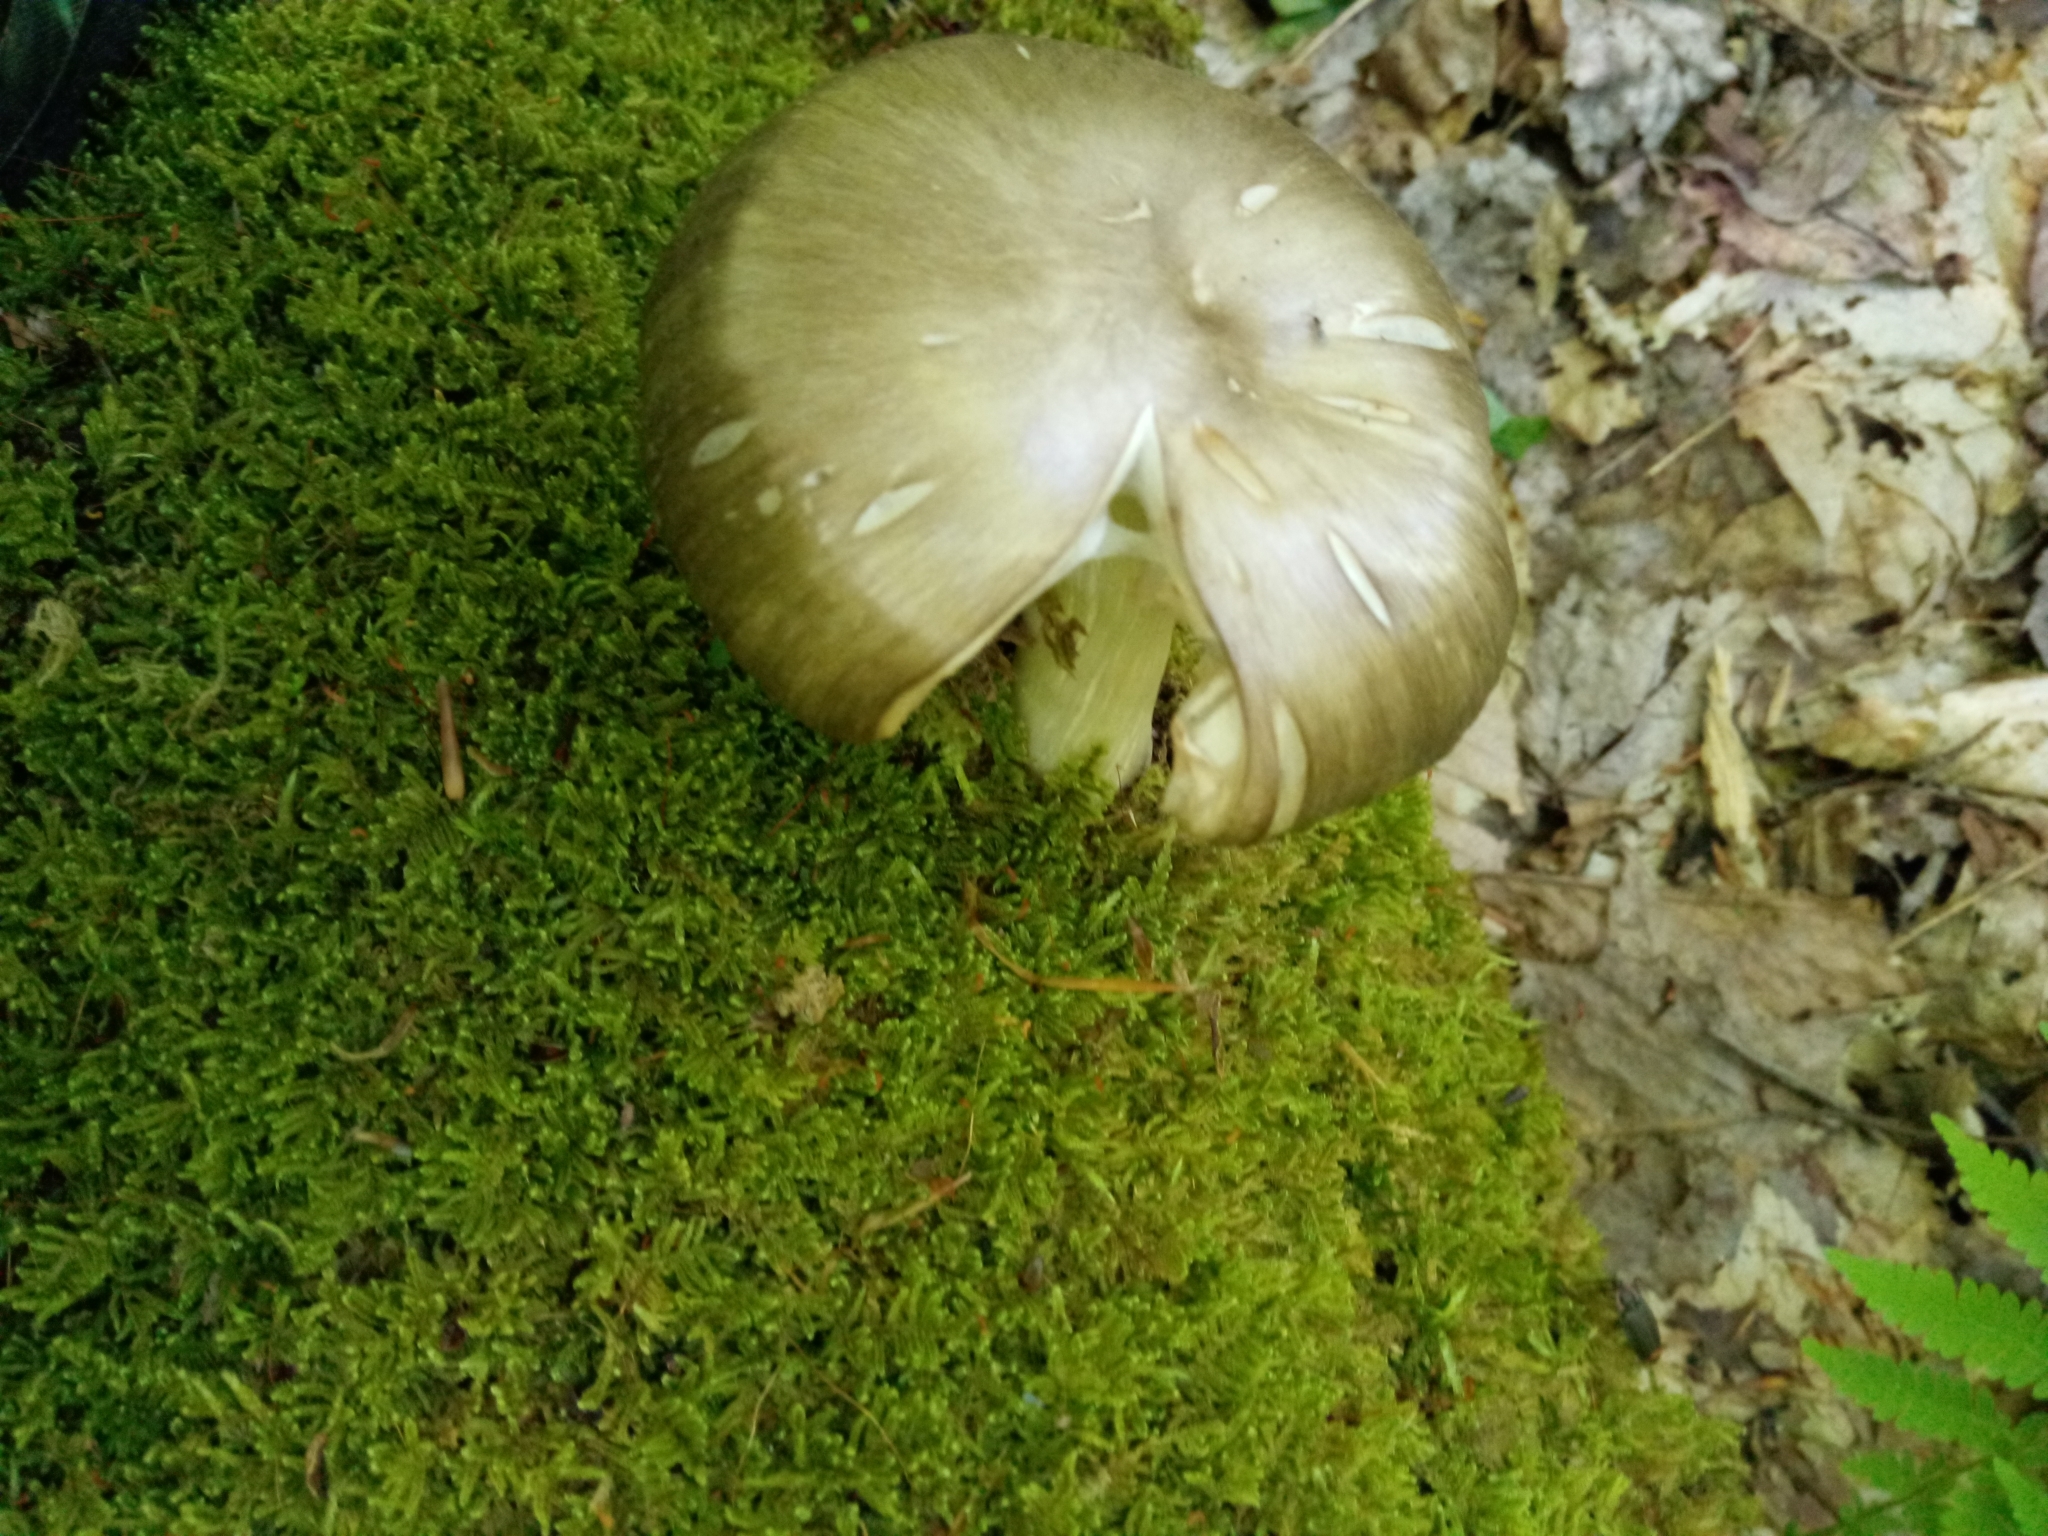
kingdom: Fungi
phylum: Basidiomycota
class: Agaricomycetes
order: Agaricales
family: Tricholomataceae
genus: Megacollybia
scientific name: Megacollybia rodmanii
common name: Eastern american platterful mushroom
